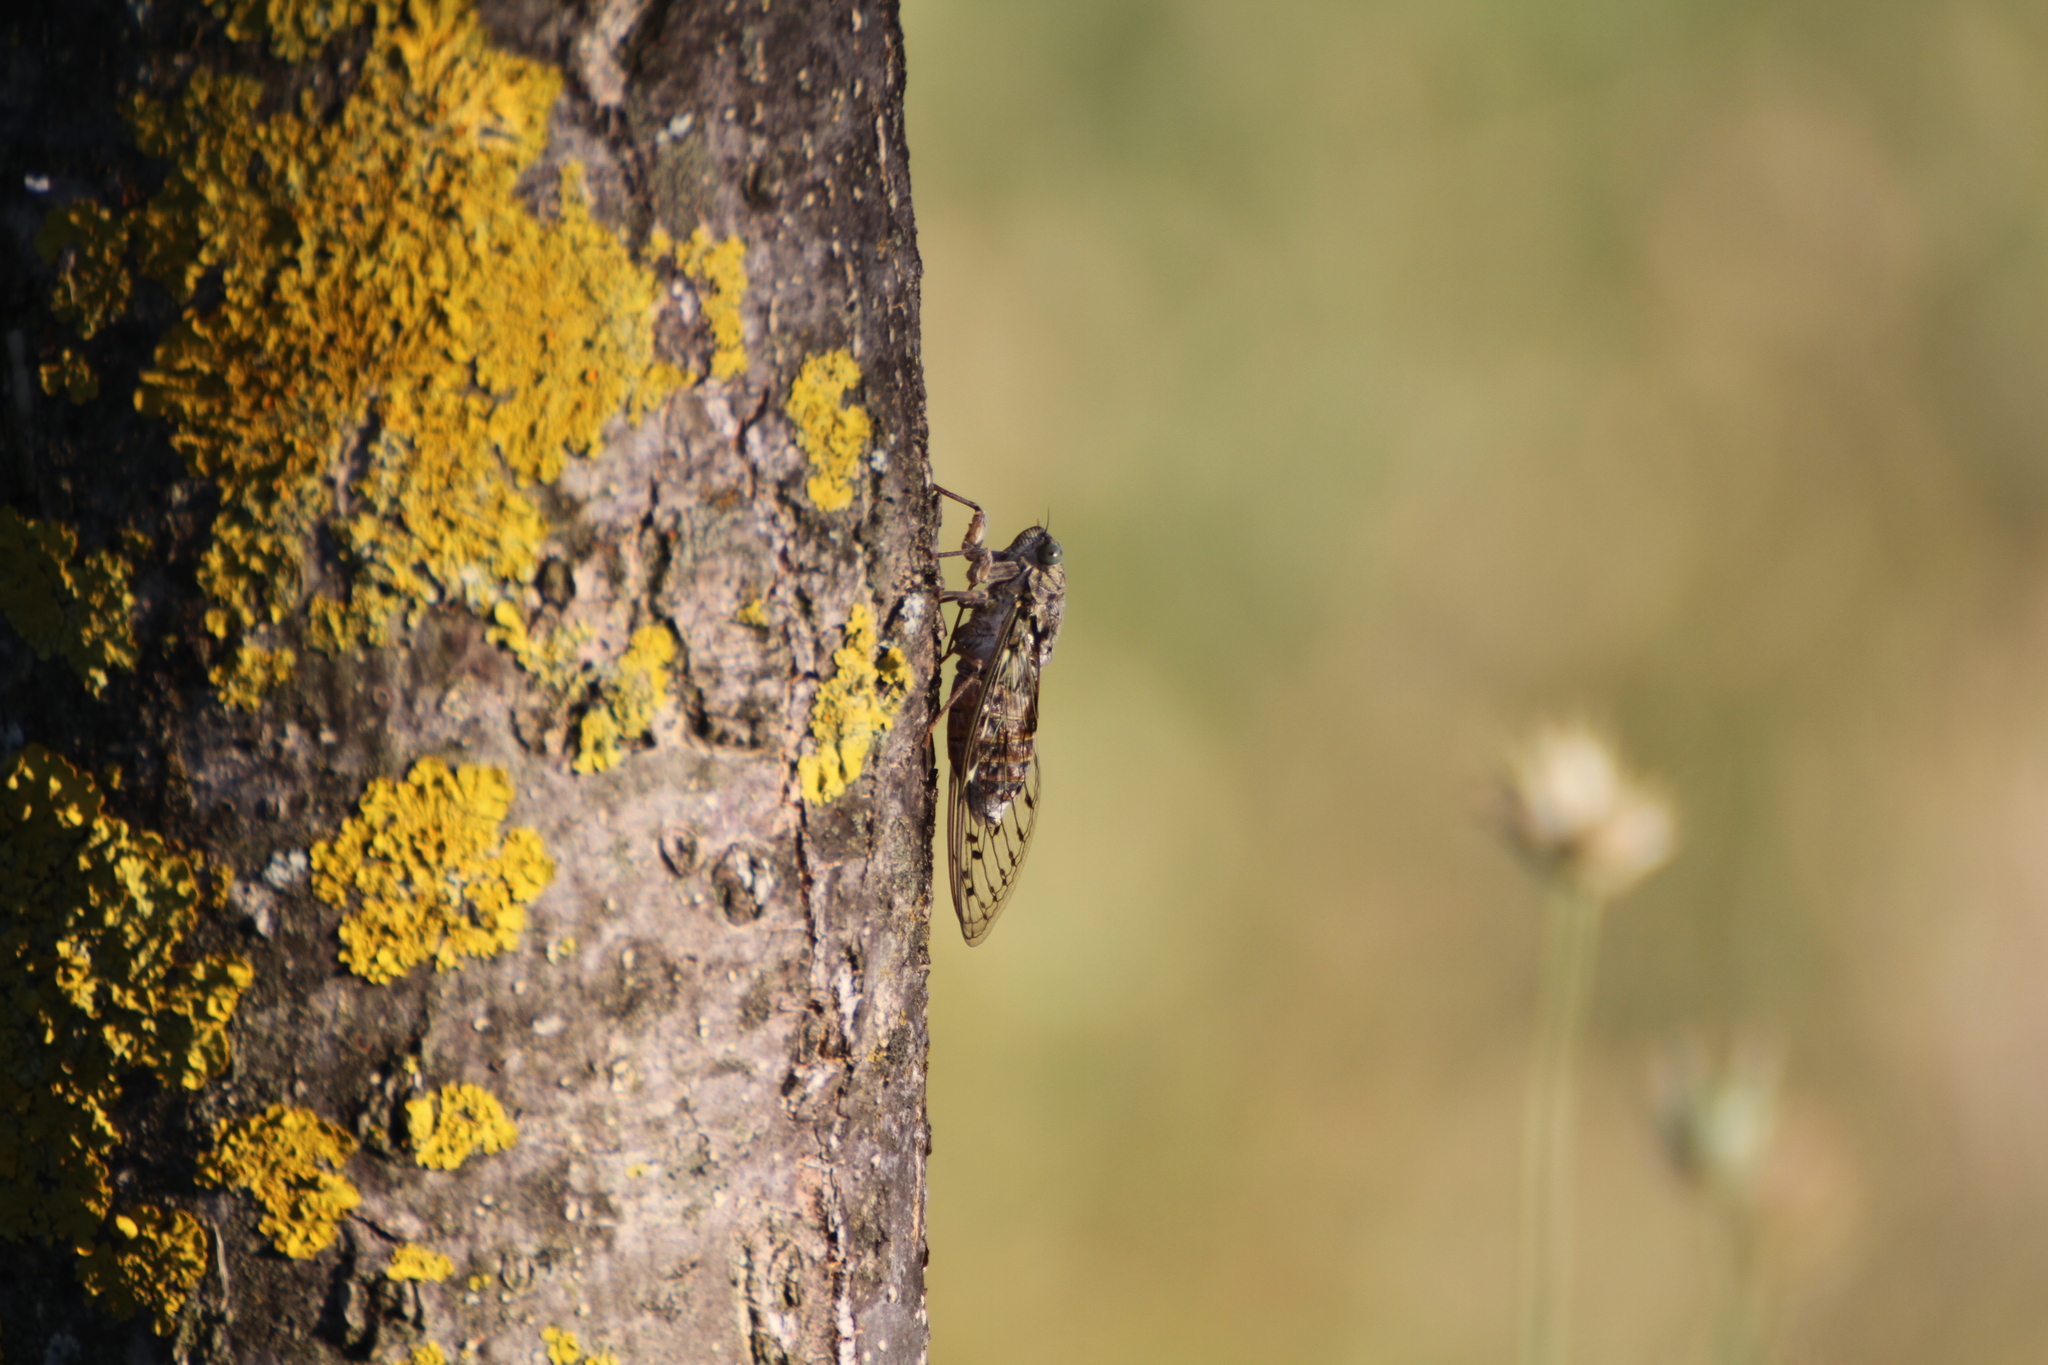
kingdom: Animalia
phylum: Arthropoda
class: Insecta
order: Hemiptera
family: Cicadidae
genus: Cicada
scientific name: Cicada orni
